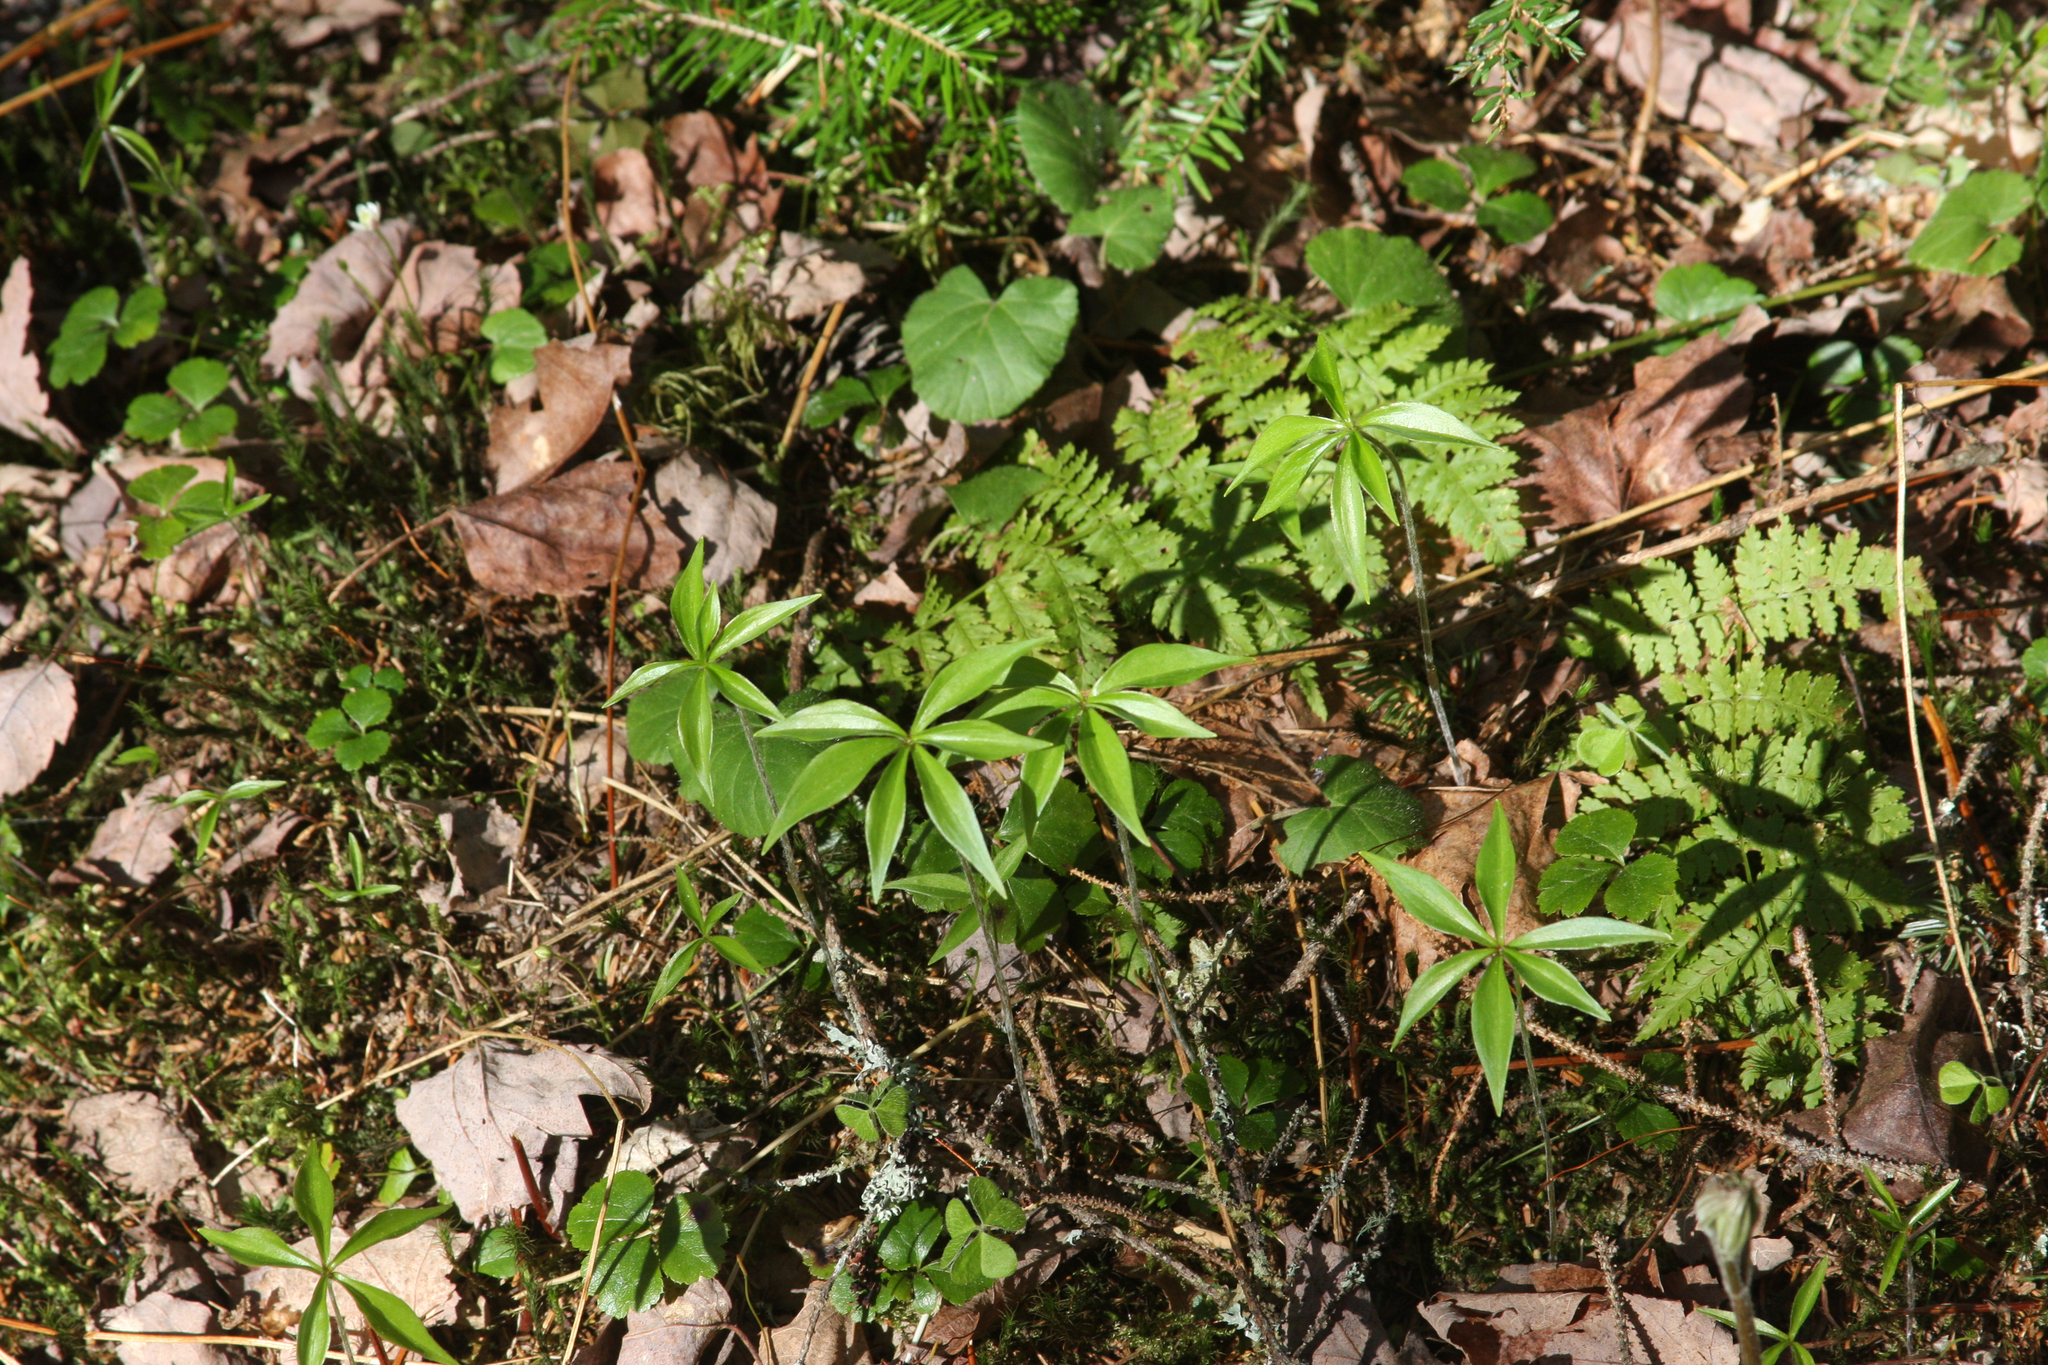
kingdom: Plantae
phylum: Tracheophyta
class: Magnoliopsida
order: Ericales
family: Primulaceae
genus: Lysimachia
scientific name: Lysimachia borealis
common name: American starflower
